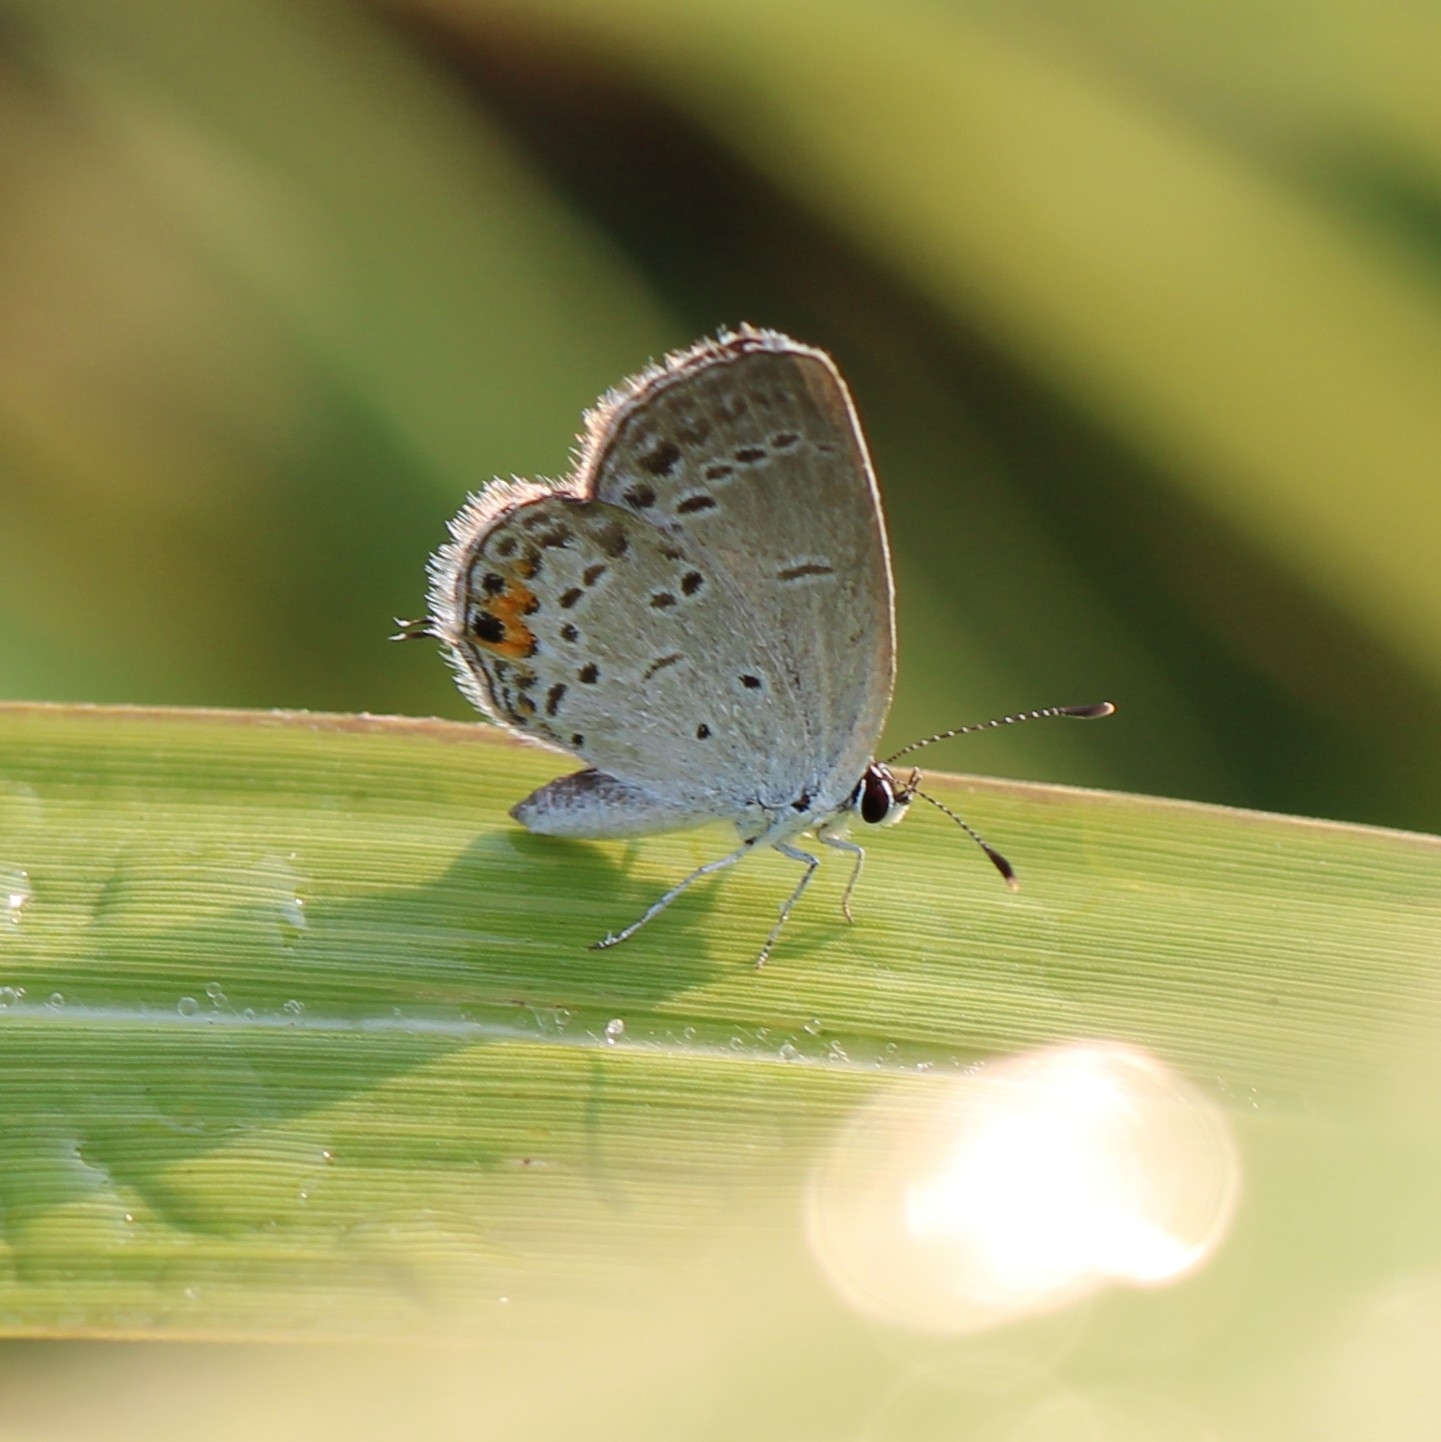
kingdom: Animalia
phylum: Arthropoda
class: Insecta
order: Lepidoptera
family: Lycaenidae
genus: Elkalyce
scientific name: Elkalyce comyntas
